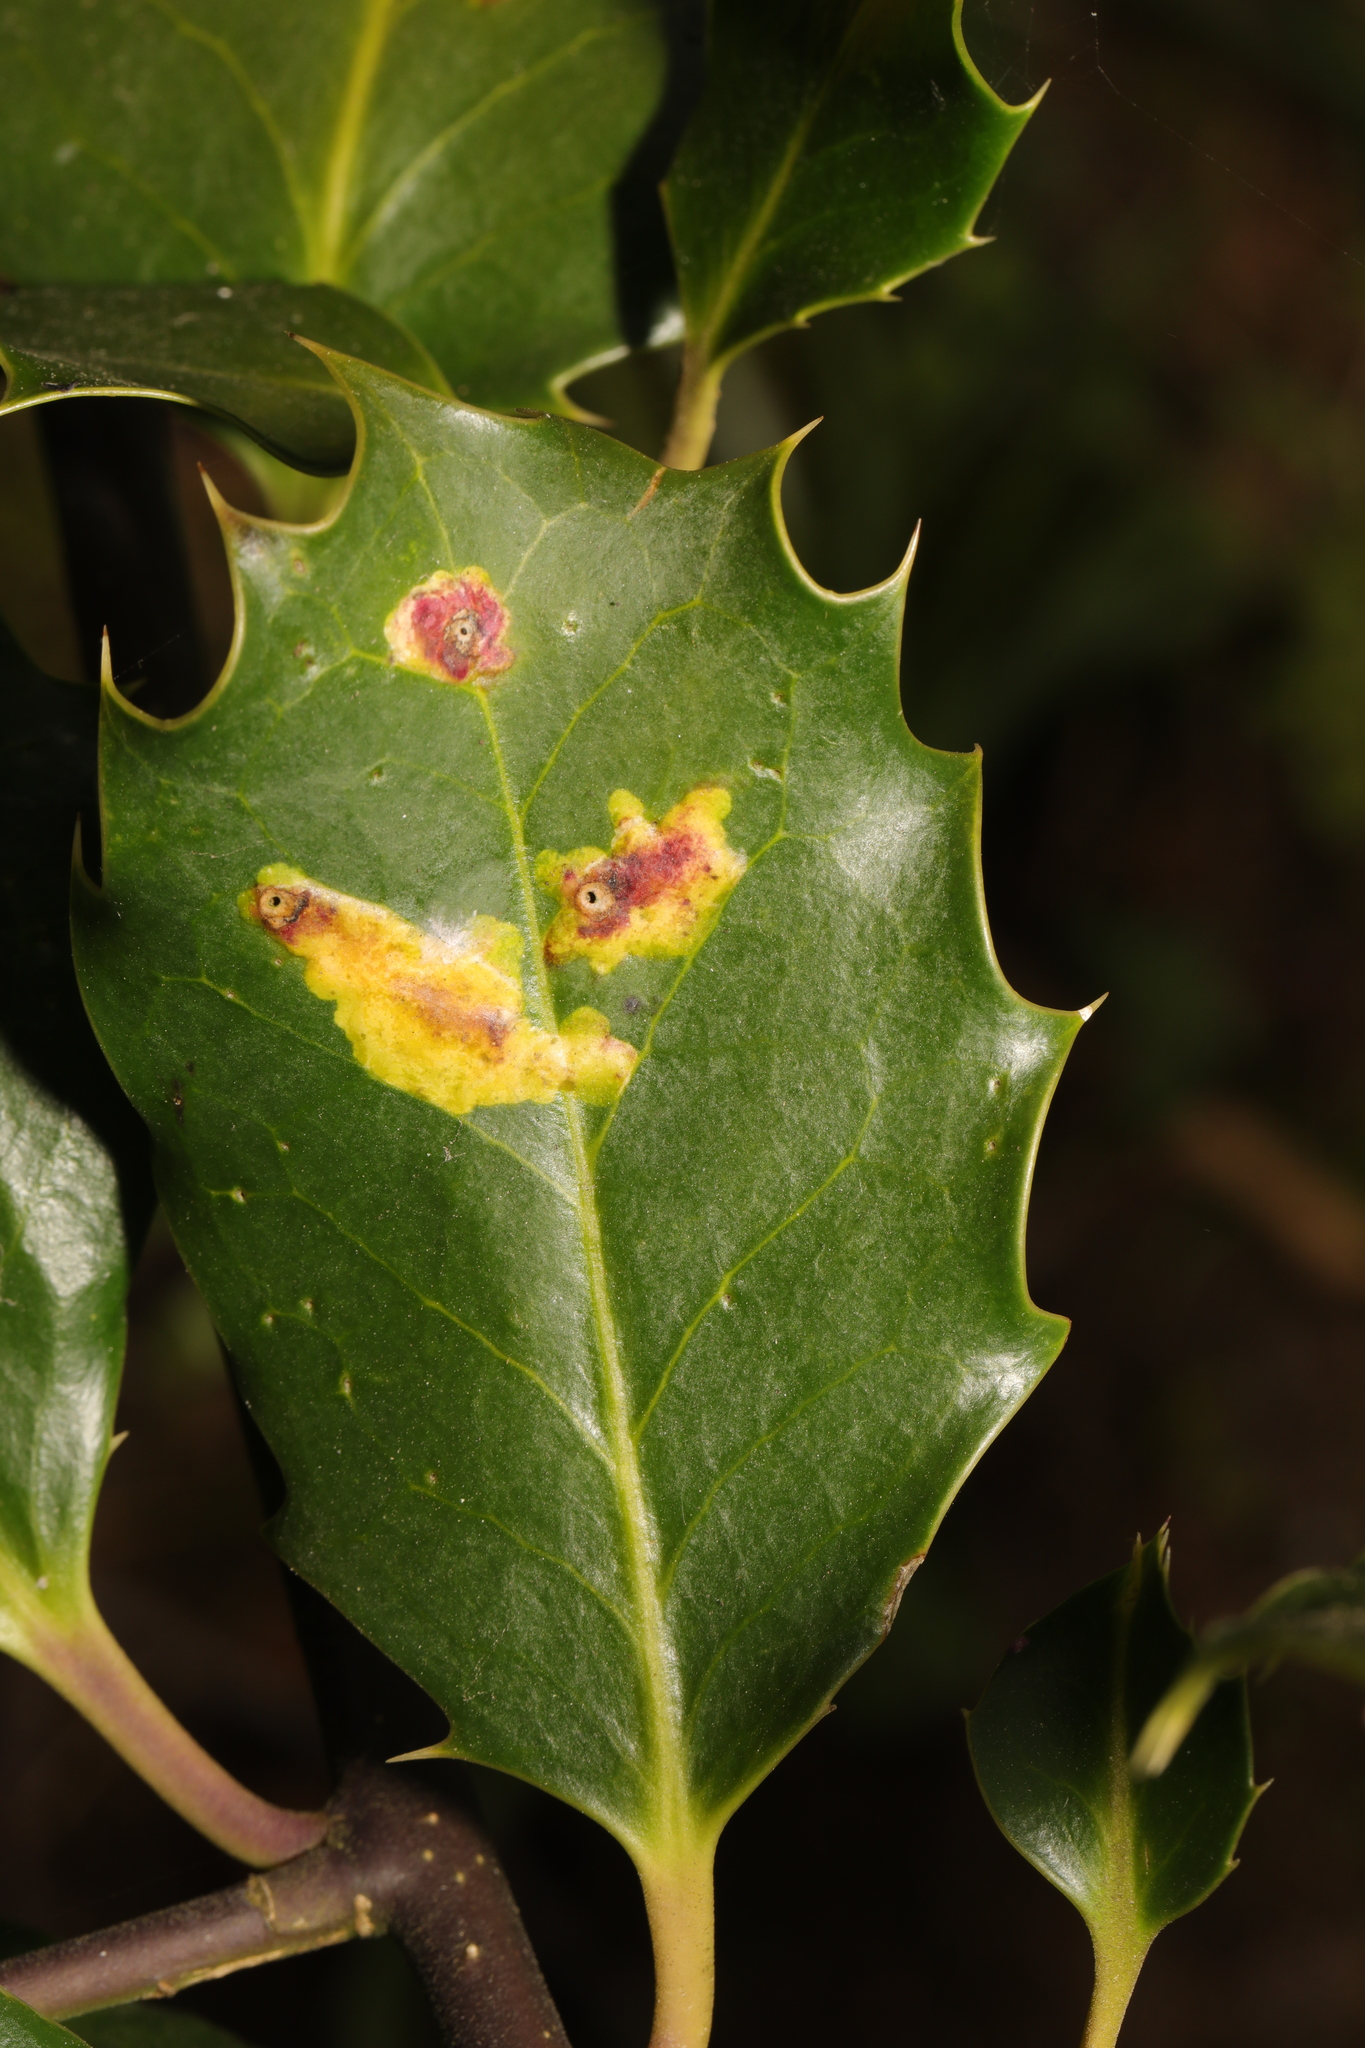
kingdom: Animalia
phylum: Arthropoda
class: Insecta
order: Diptera
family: Agromyzidae
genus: Phytomyza
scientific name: Phytomyza ilicis
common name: Holly leafminer
